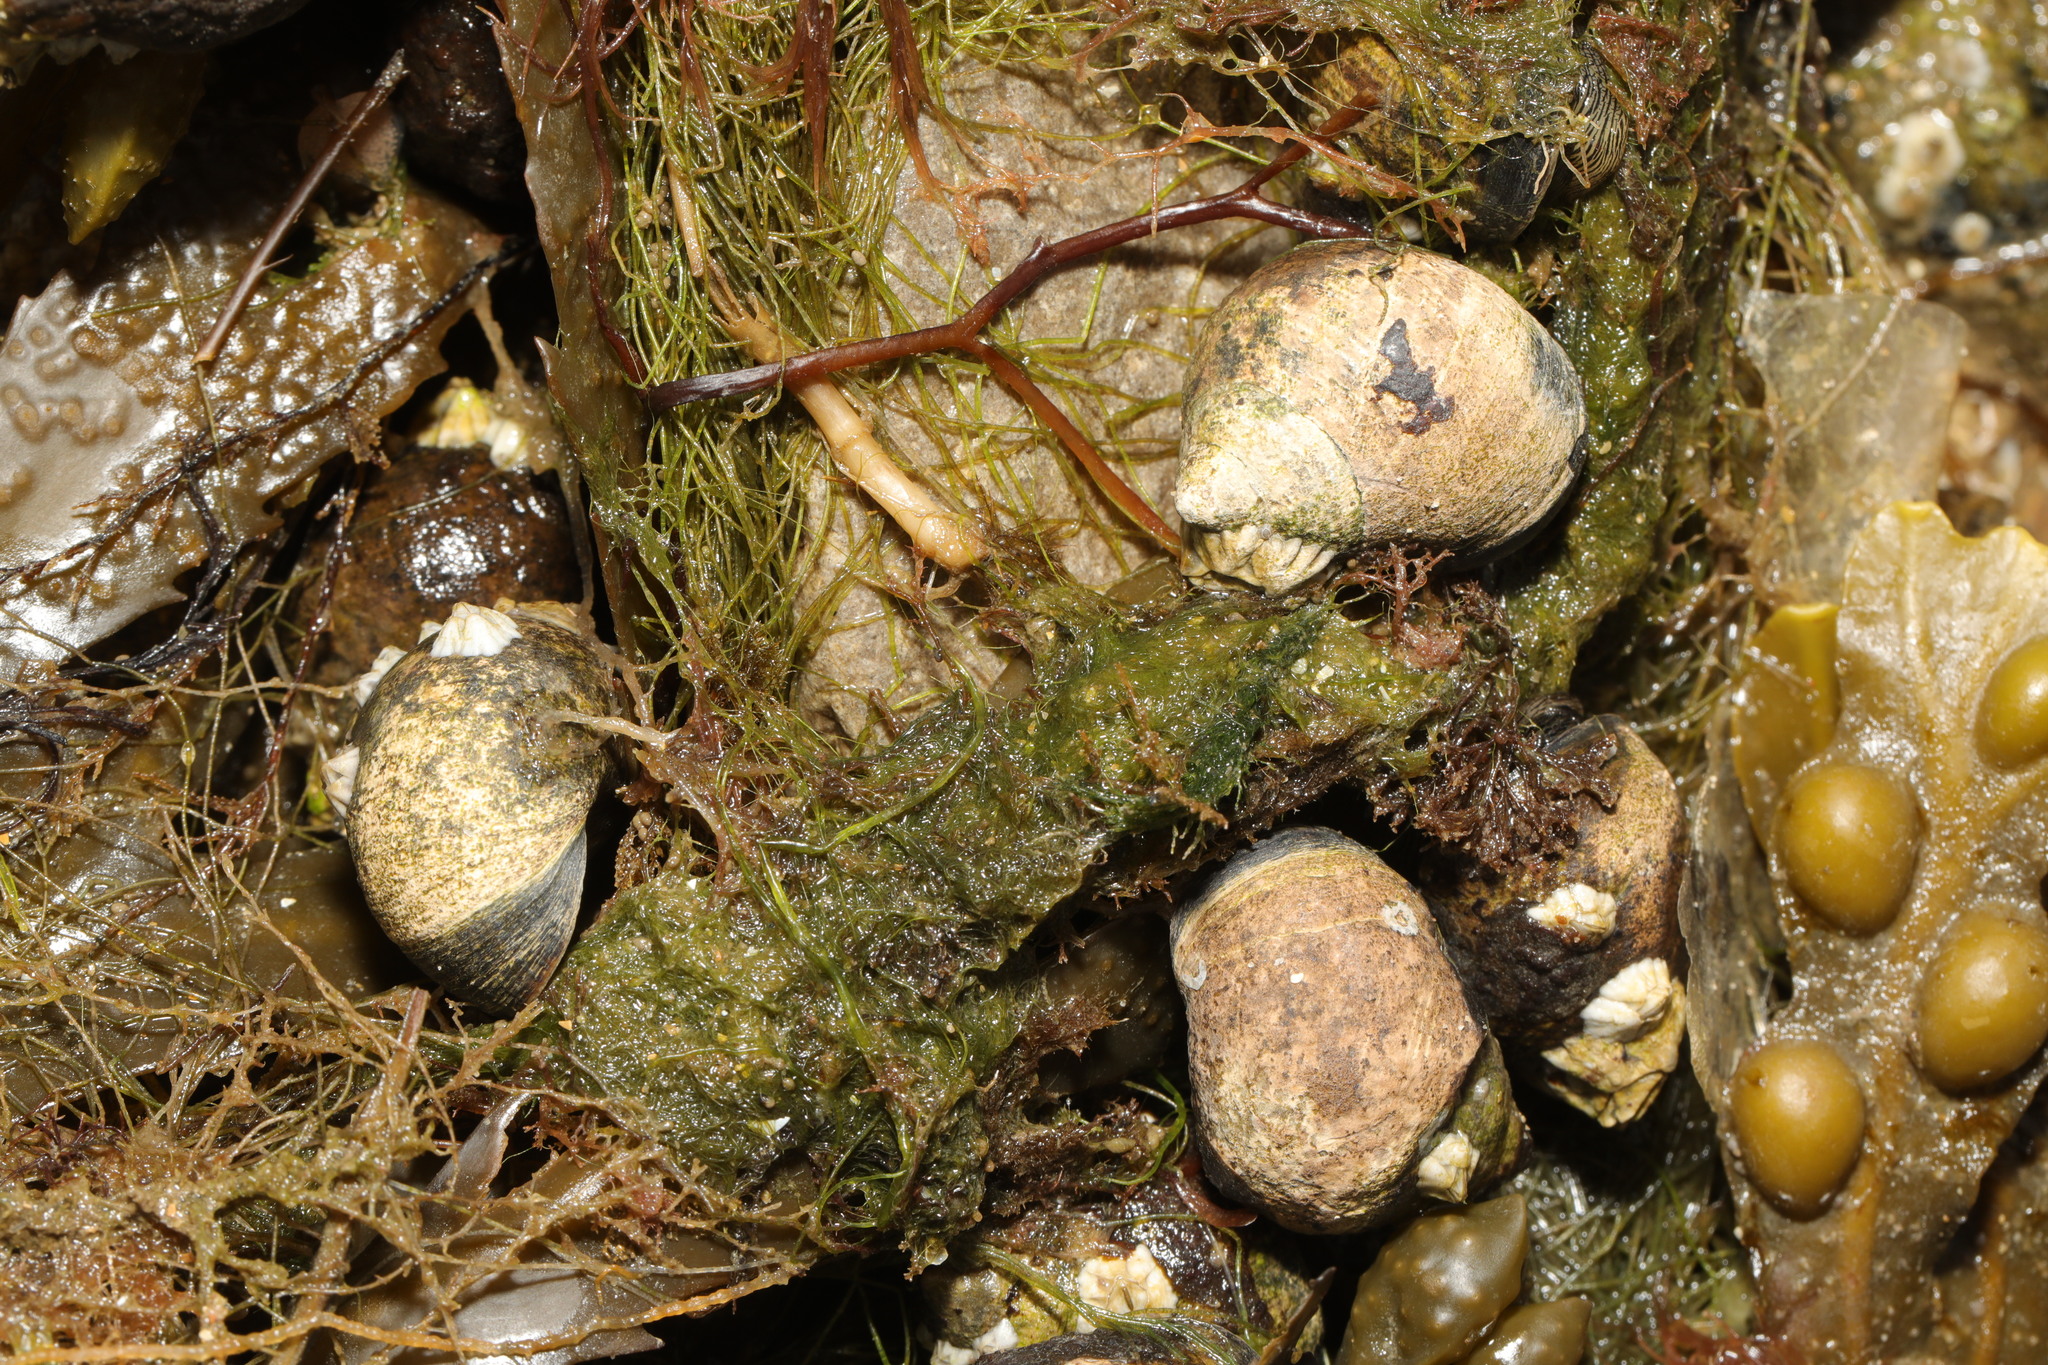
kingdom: Animalia
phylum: Mollusca
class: Gastropoda
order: Littorinimorpha
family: Littorinidae
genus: Littorina
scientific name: Littorina littorea
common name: Common periwinkle
